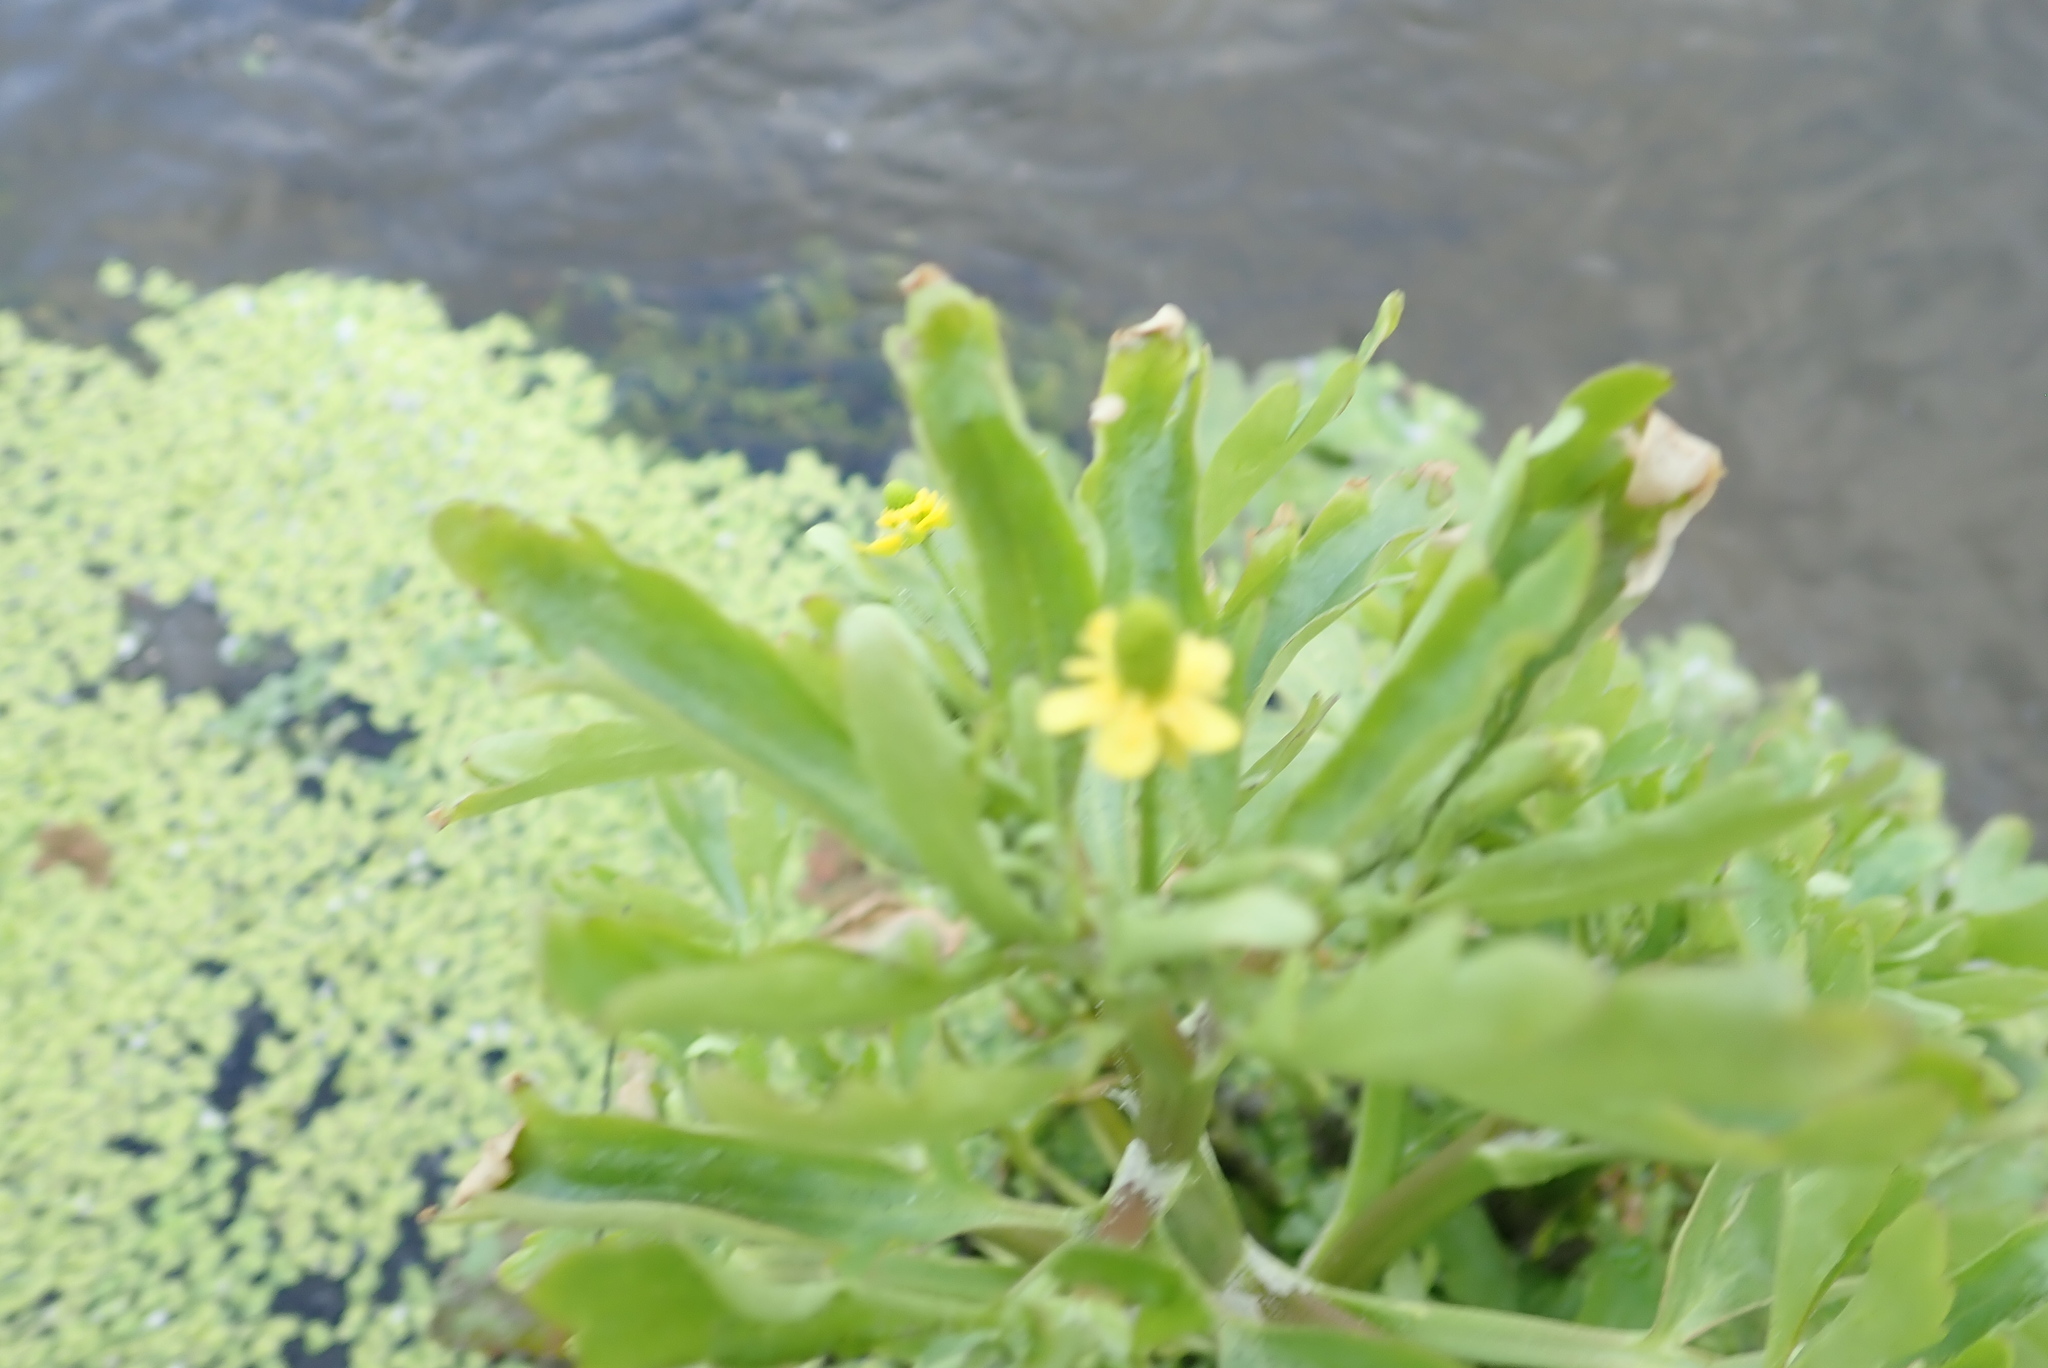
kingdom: Plantae
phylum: Tracheophyta
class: Magnoliopsida
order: Ranunculales
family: Ranunculaceae
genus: Ranunculus
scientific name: Ranunculus sceleratus
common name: Celery-leaved buttercup
